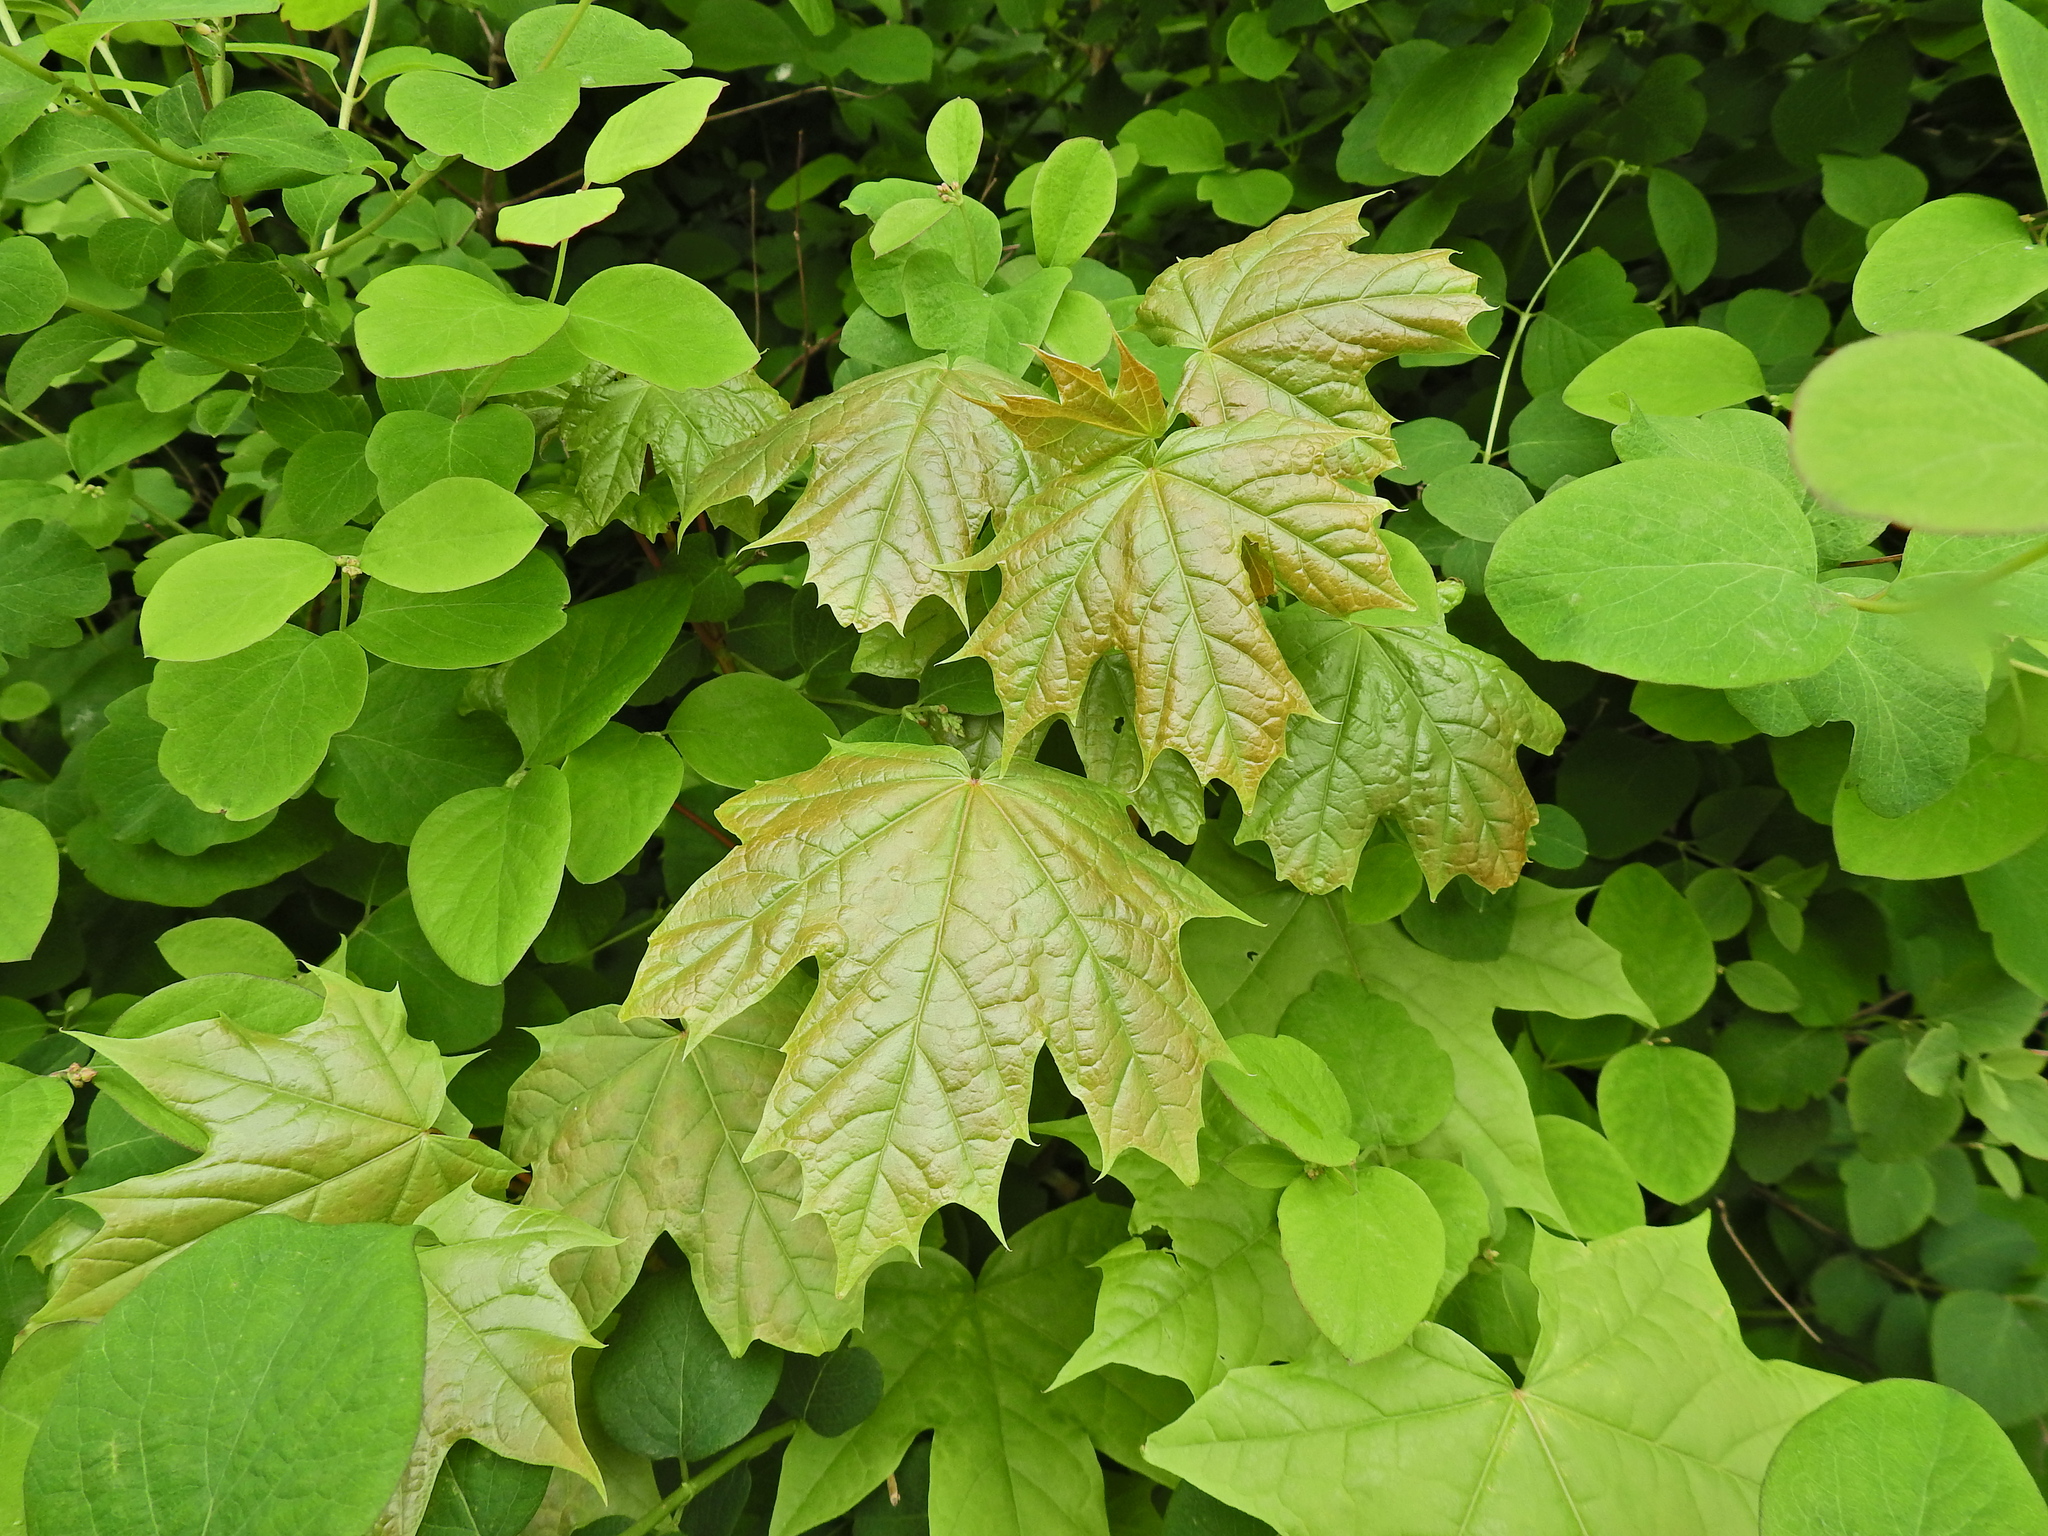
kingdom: Plantae
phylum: Tracheophyta
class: Magnoliopsida
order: Sapindales
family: Sapindaceae
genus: Acer
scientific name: Acer platanoides
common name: Norway maple
